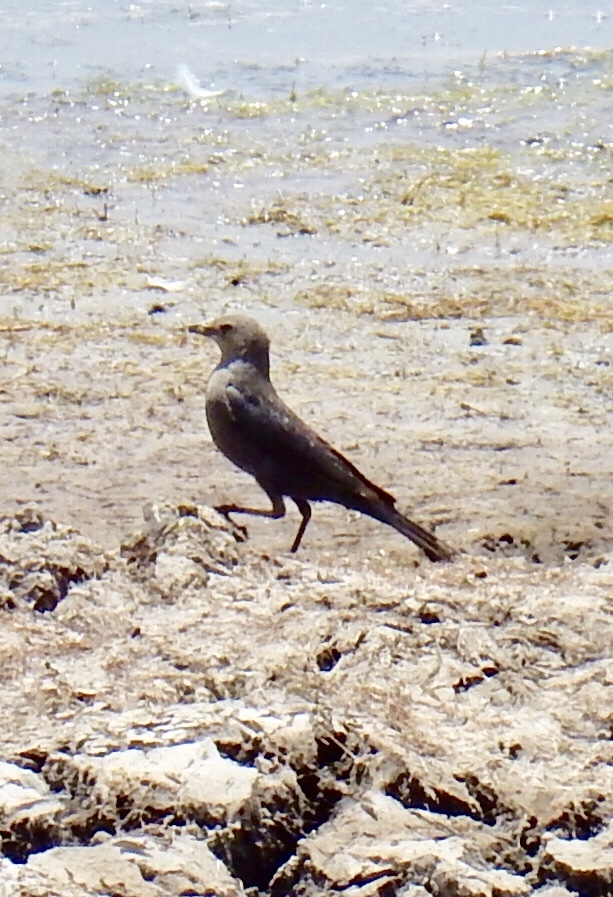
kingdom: Animalia
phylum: Chordata
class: Aves
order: Passeriformes
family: Icteridae
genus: Euphagus
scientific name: Euphagus cyanocephalus
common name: Brewer's blackbird
